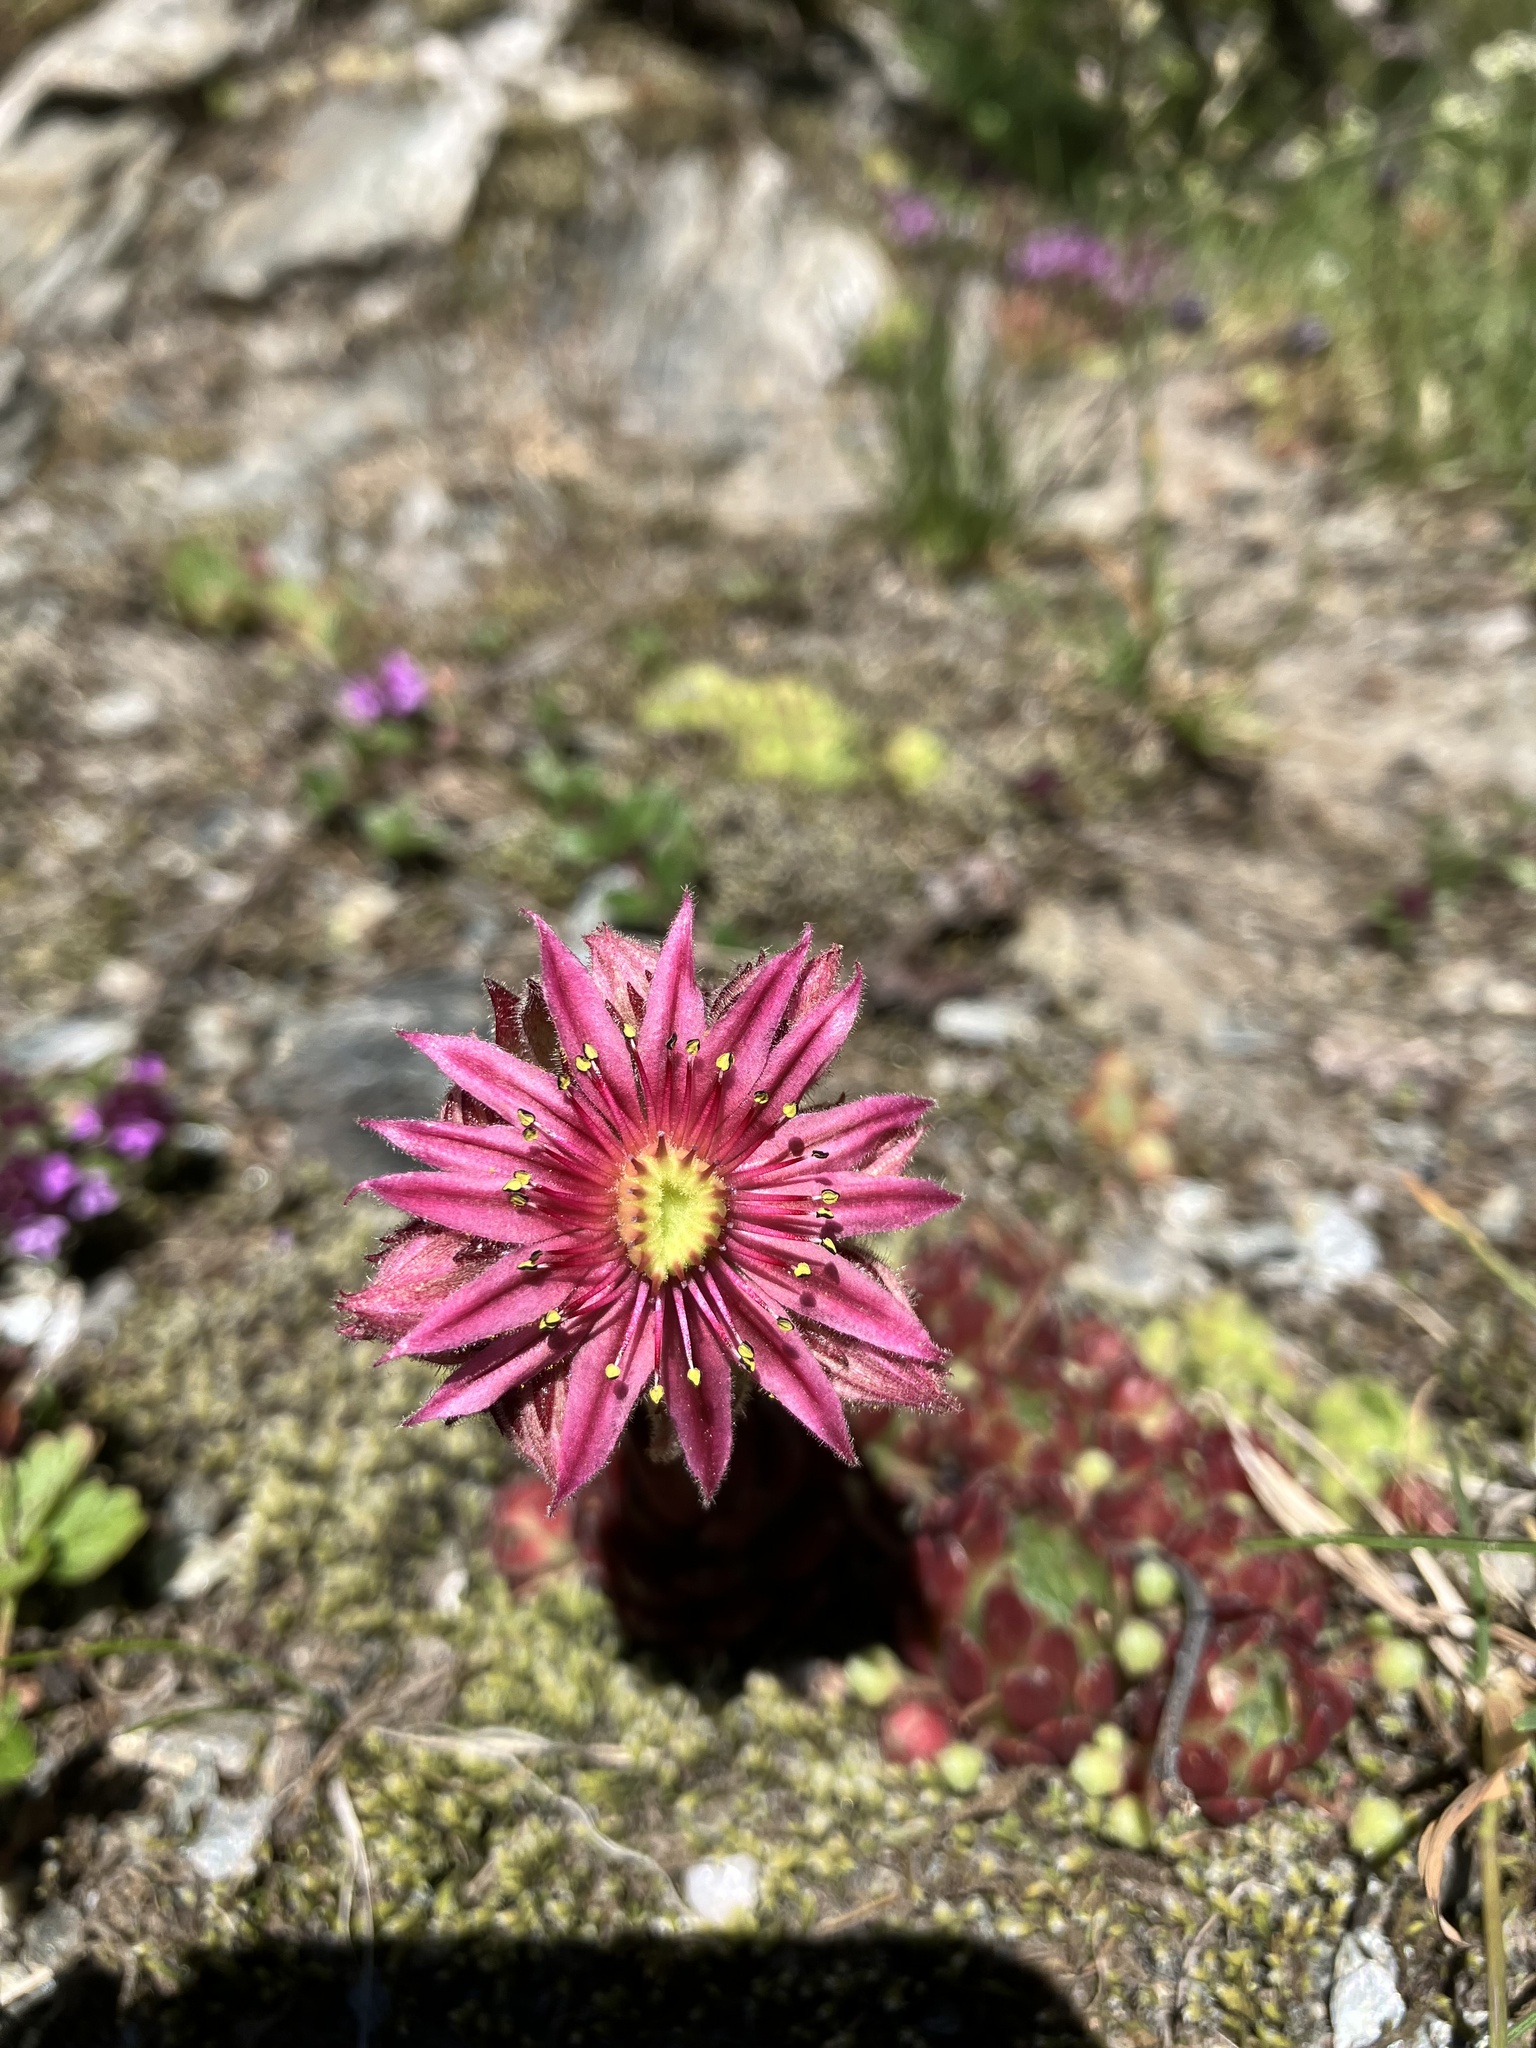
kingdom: Plantae
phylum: Tracheophyta
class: Magnoliopsida
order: Saxifragales
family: Crassulaceae
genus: Sempervivum
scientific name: Sempervivum montanum
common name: Mountain house-leek
